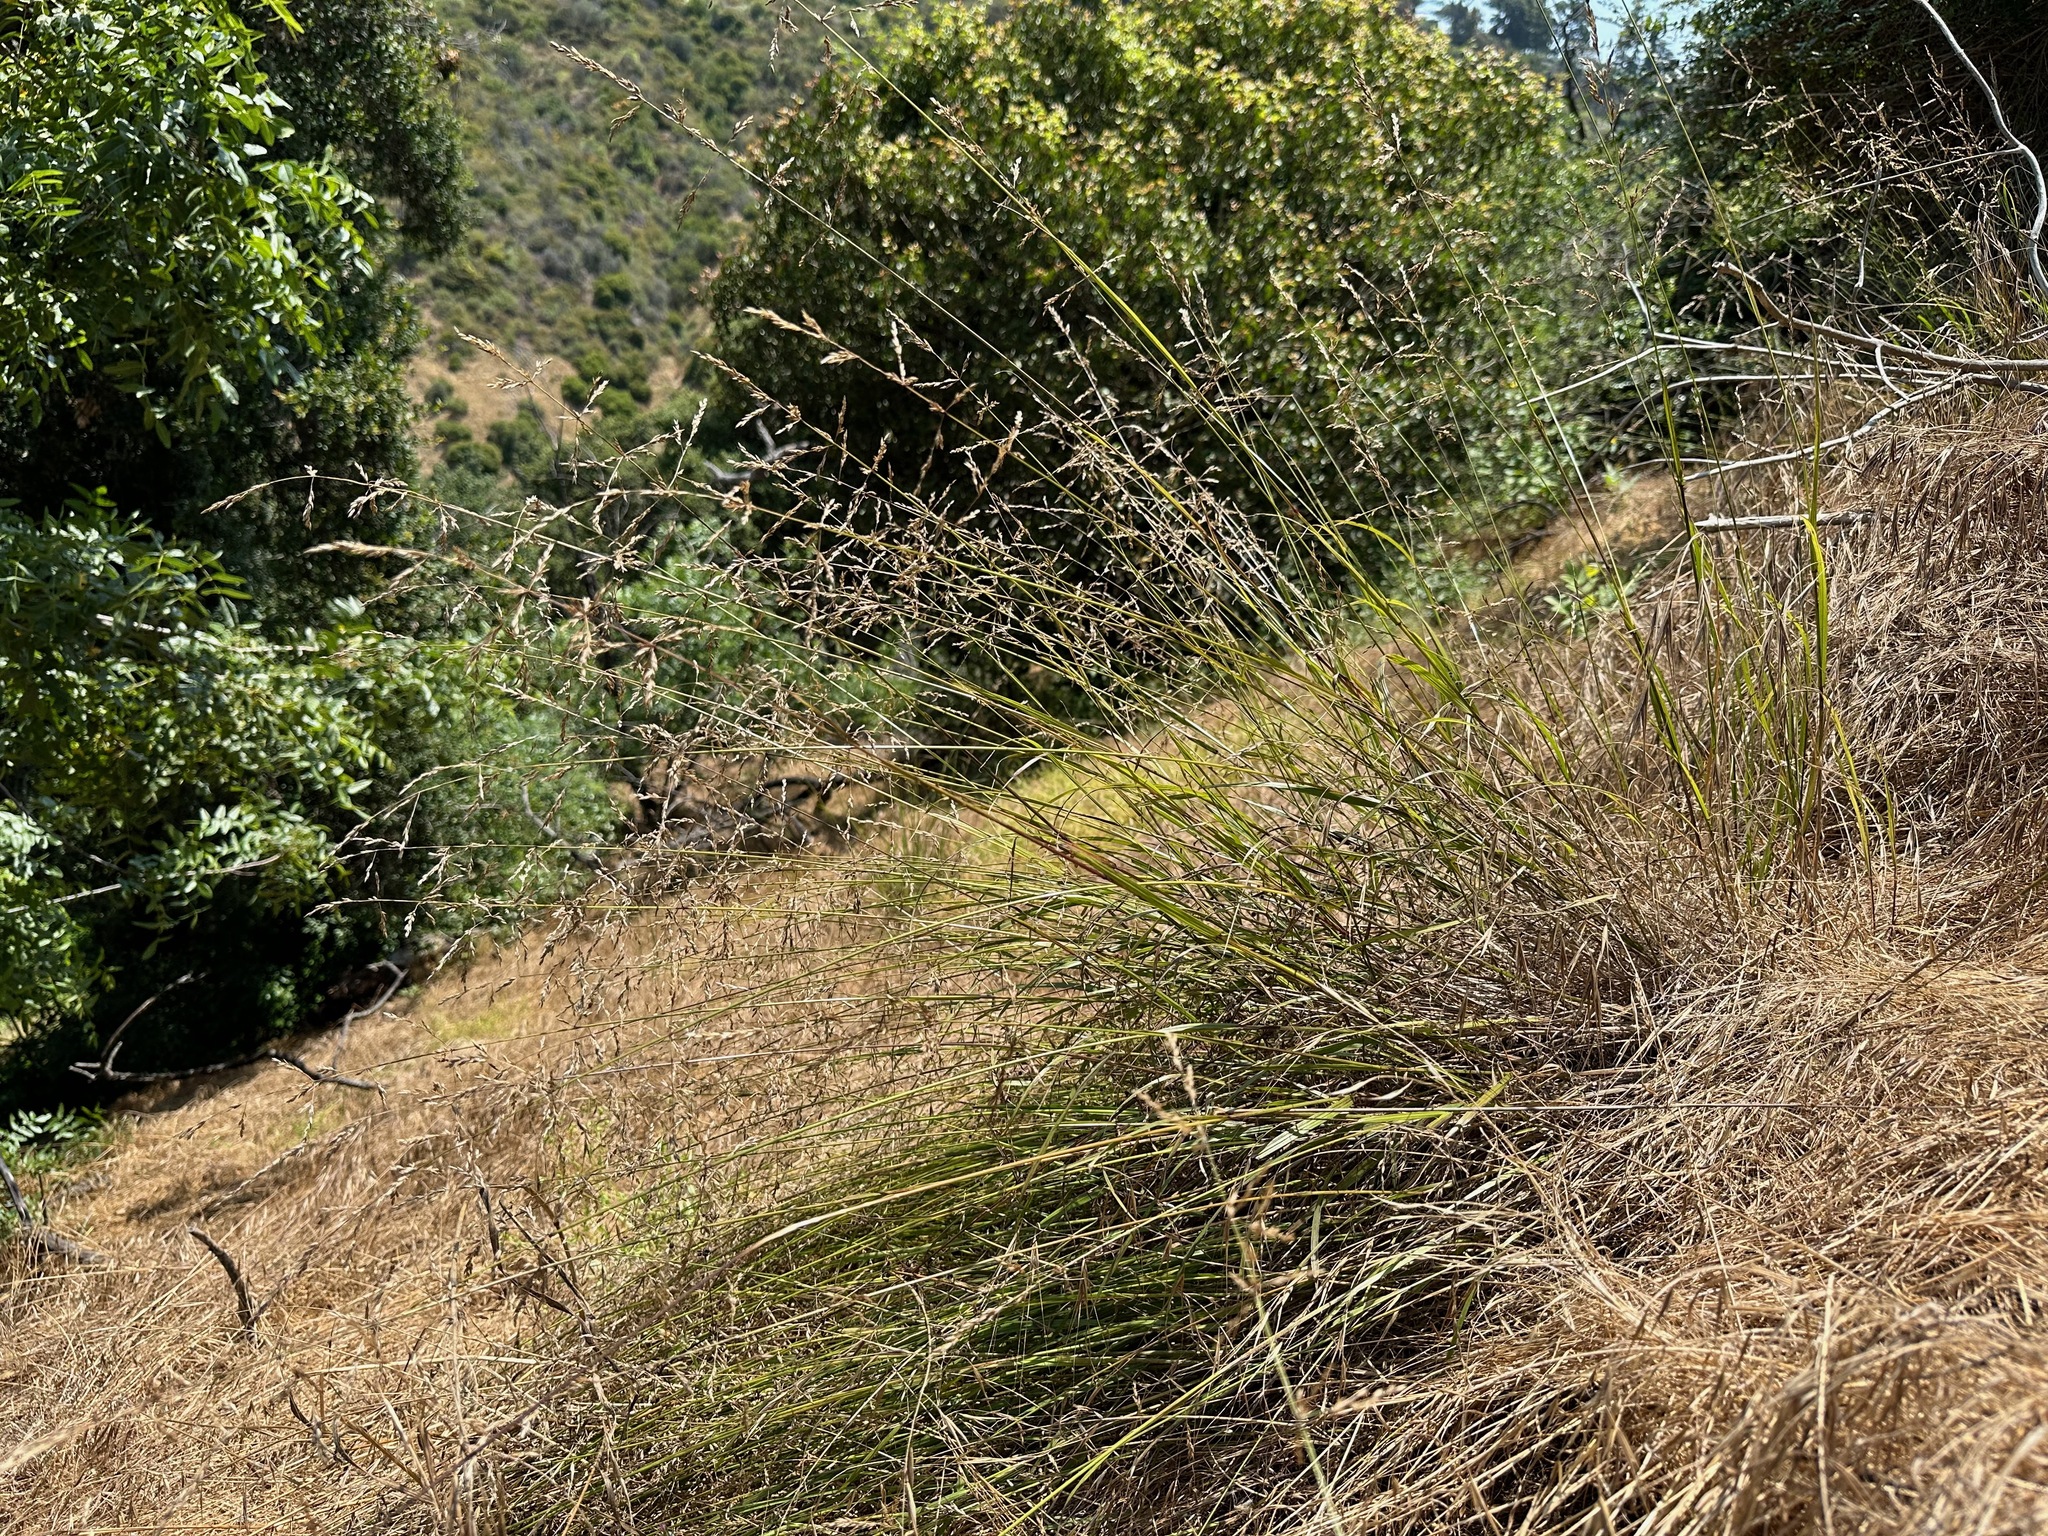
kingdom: Plantae
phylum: Tracheophyta
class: Liliopsida
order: Poales
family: Poaceae
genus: Melica
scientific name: Melica imperfecta
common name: California melic
